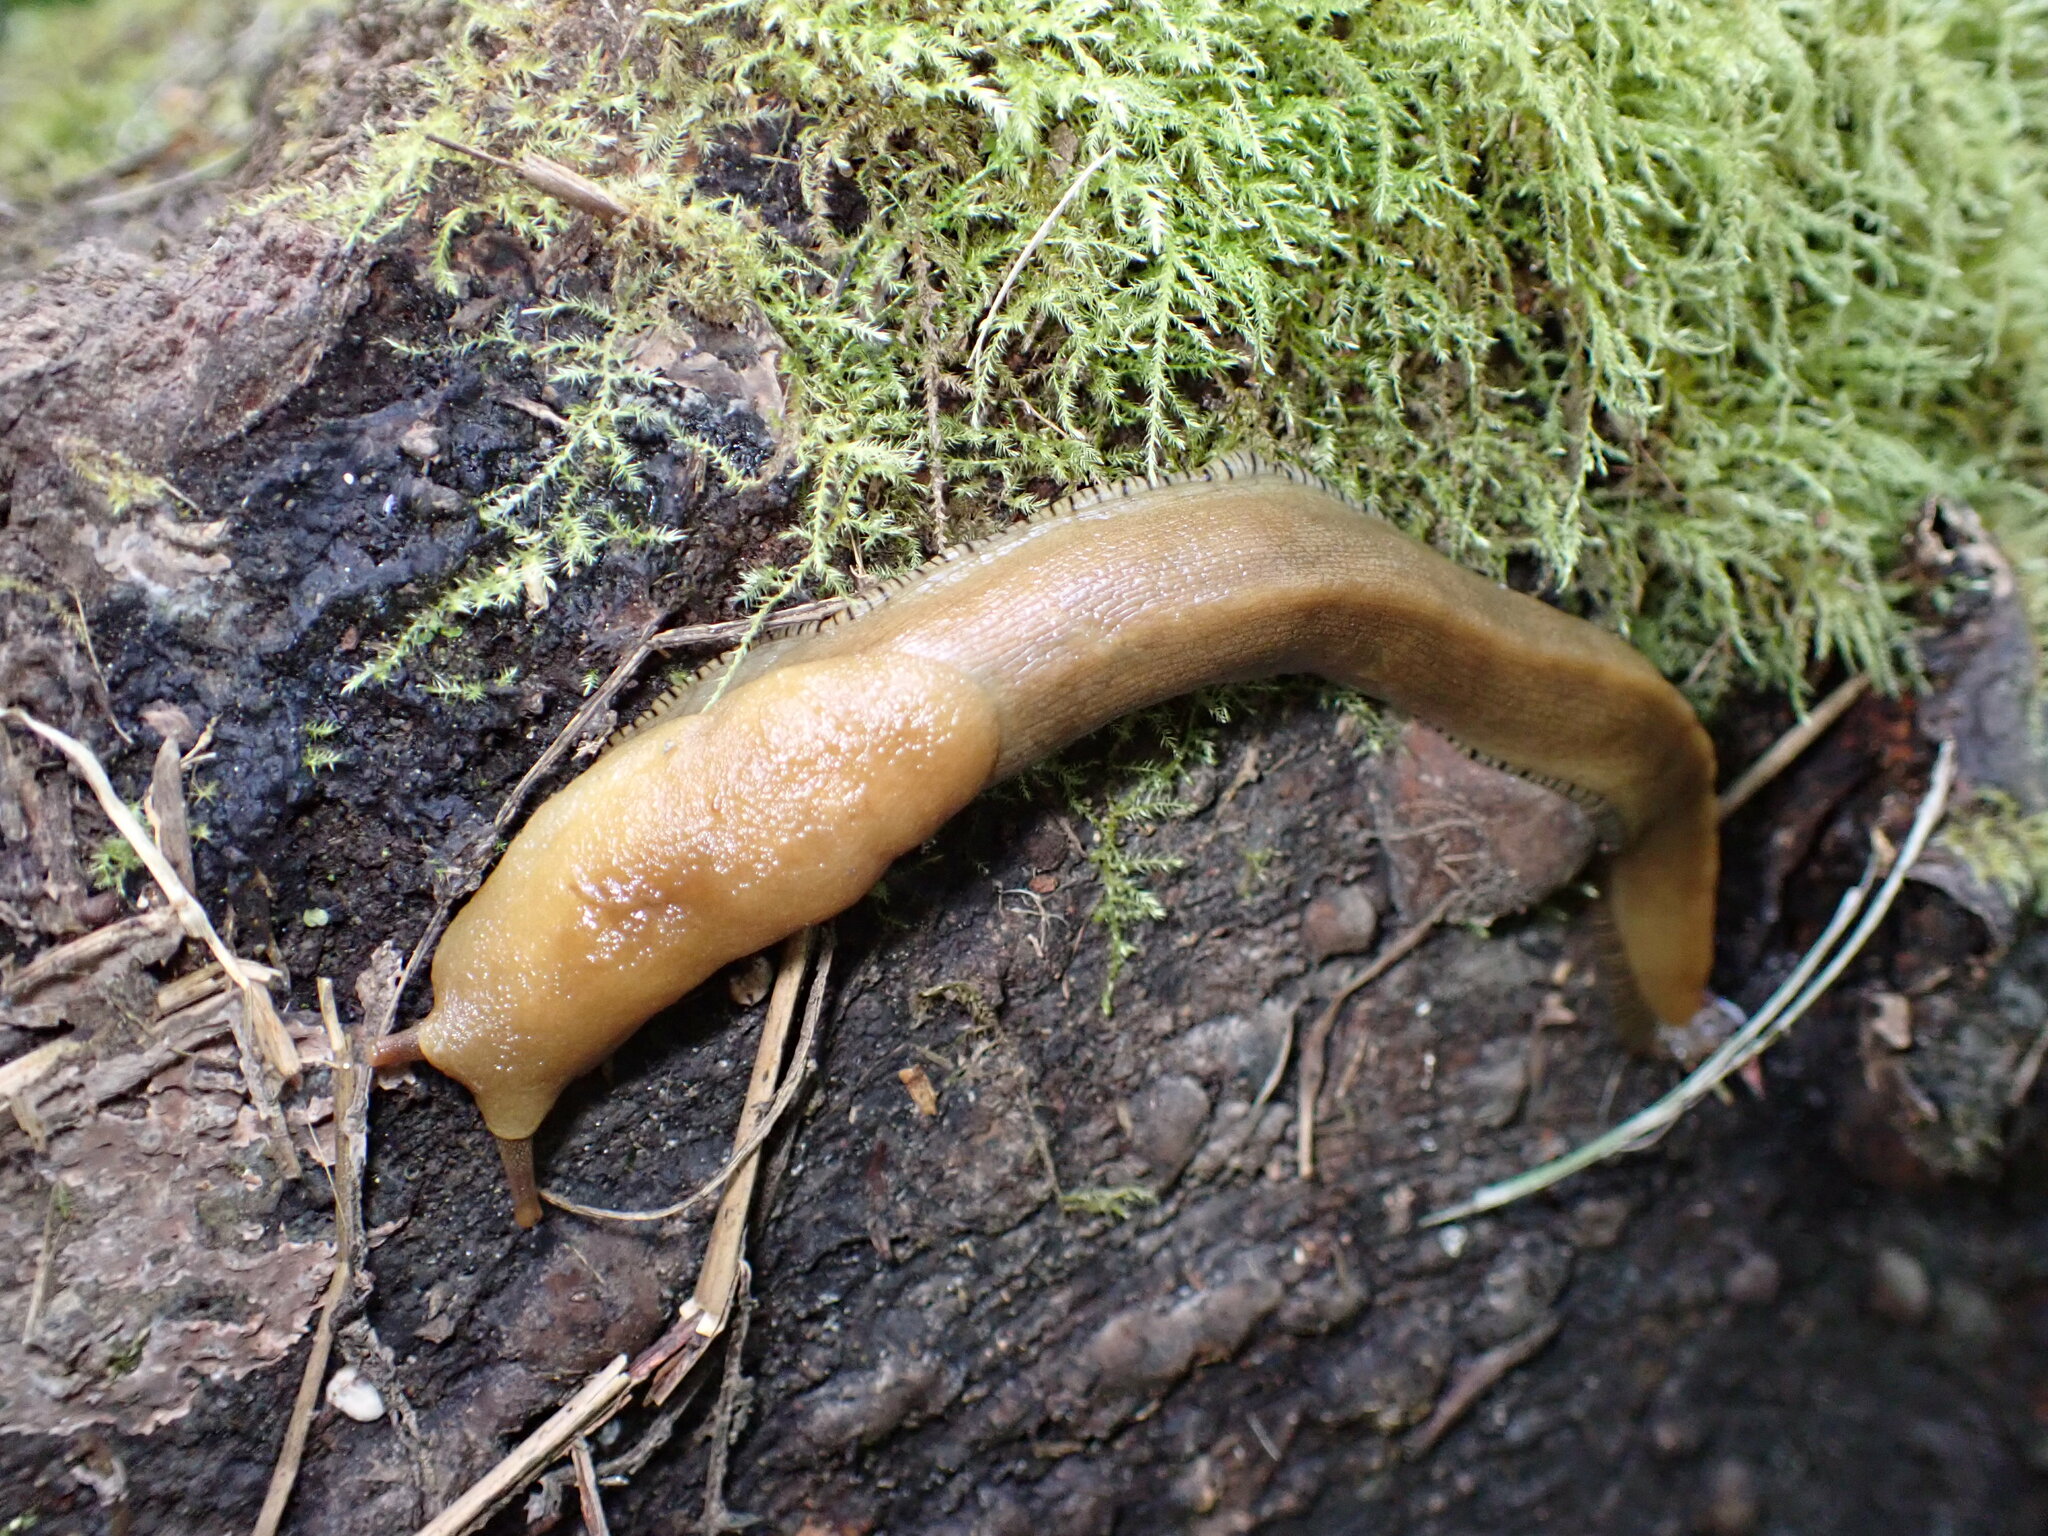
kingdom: Animalia
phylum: Mollusca
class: Gastropoda
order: Stylommatophora
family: Ariolimacidae
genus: Ariolimax
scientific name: Ariolimax buttoni
